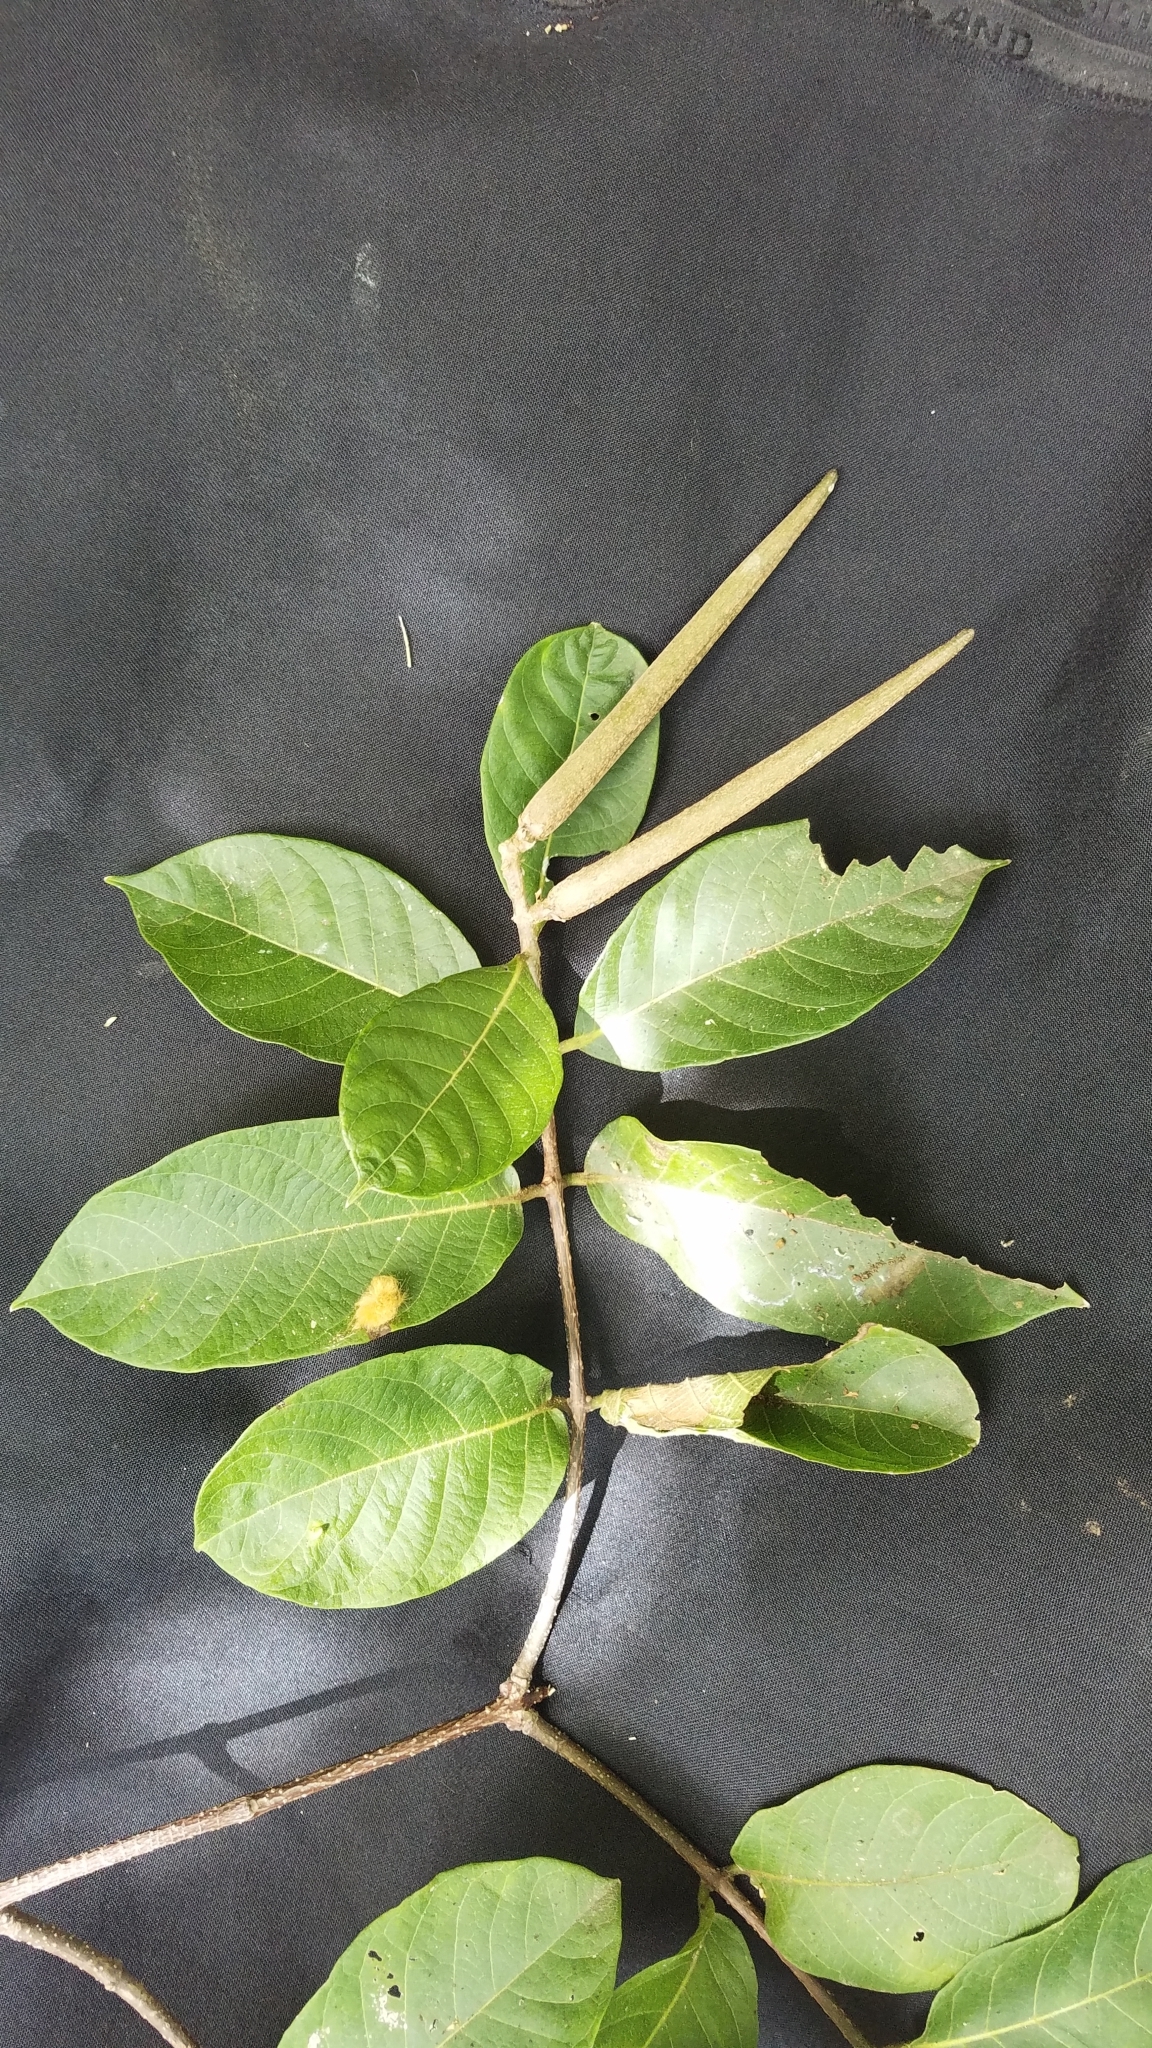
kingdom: Plantae
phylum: Tracheophyta
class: Magnoliopsida
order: Gentianales
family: Apocynaceae
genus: Forsteronia
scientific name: Forsteronia spicata
